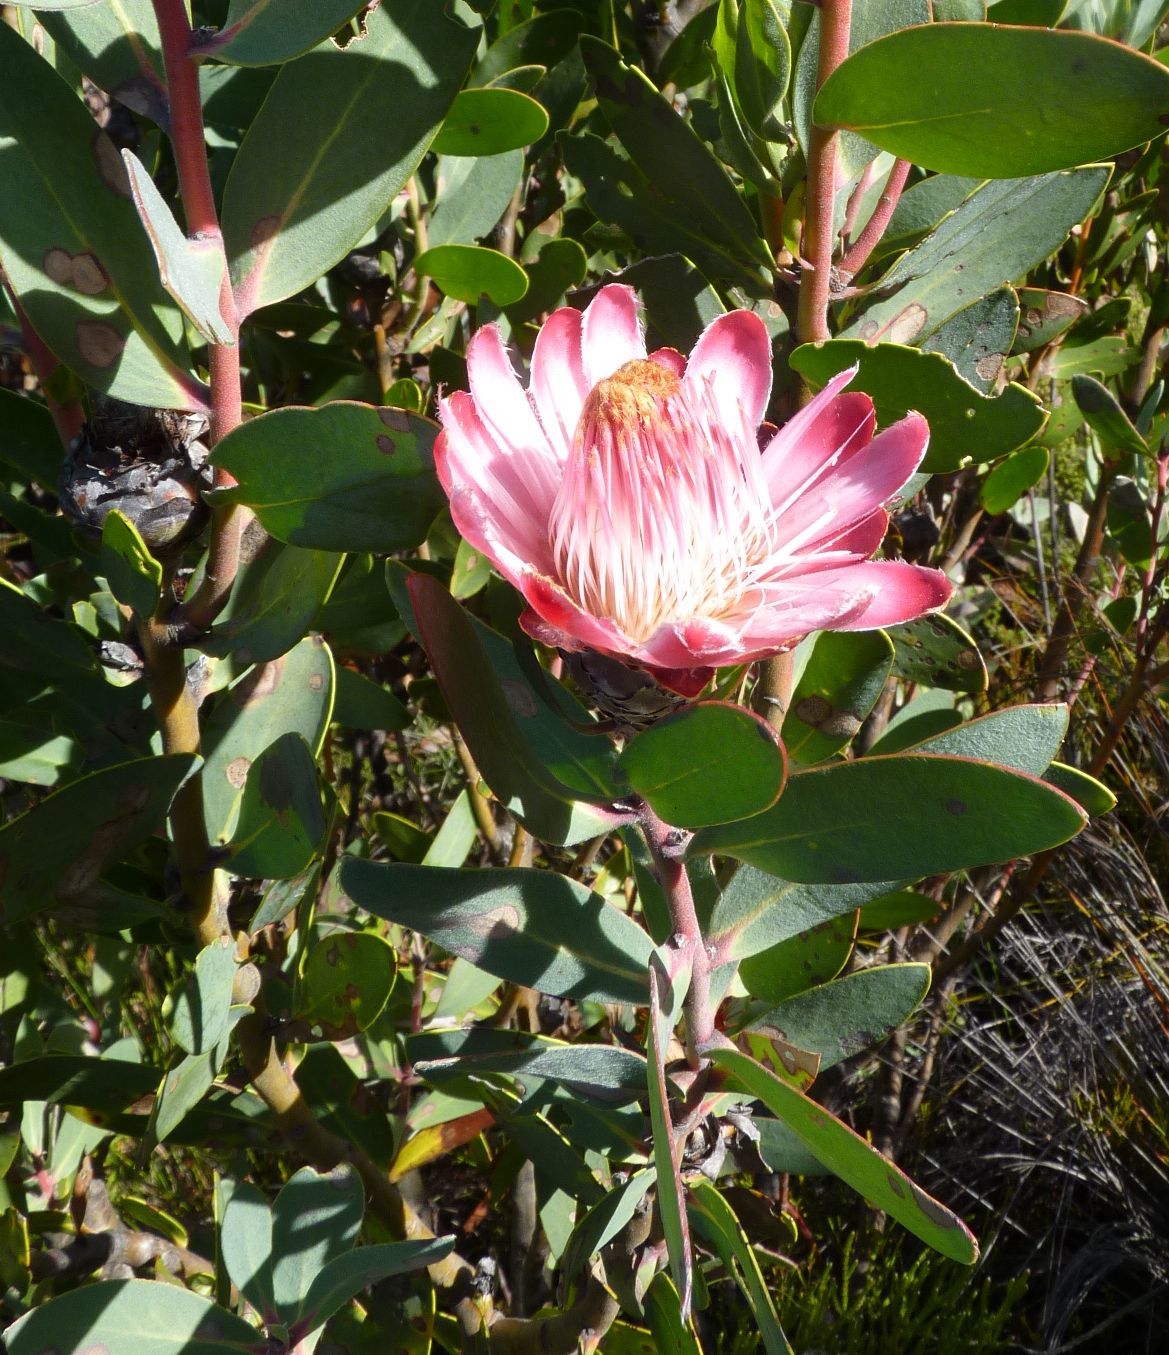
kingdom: Plantae
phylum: Tracheophyta
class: Magnoliopsida
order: Proteales
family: Proteaceae
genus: Protea
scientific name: Protea punctata
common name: Water sugarbush
